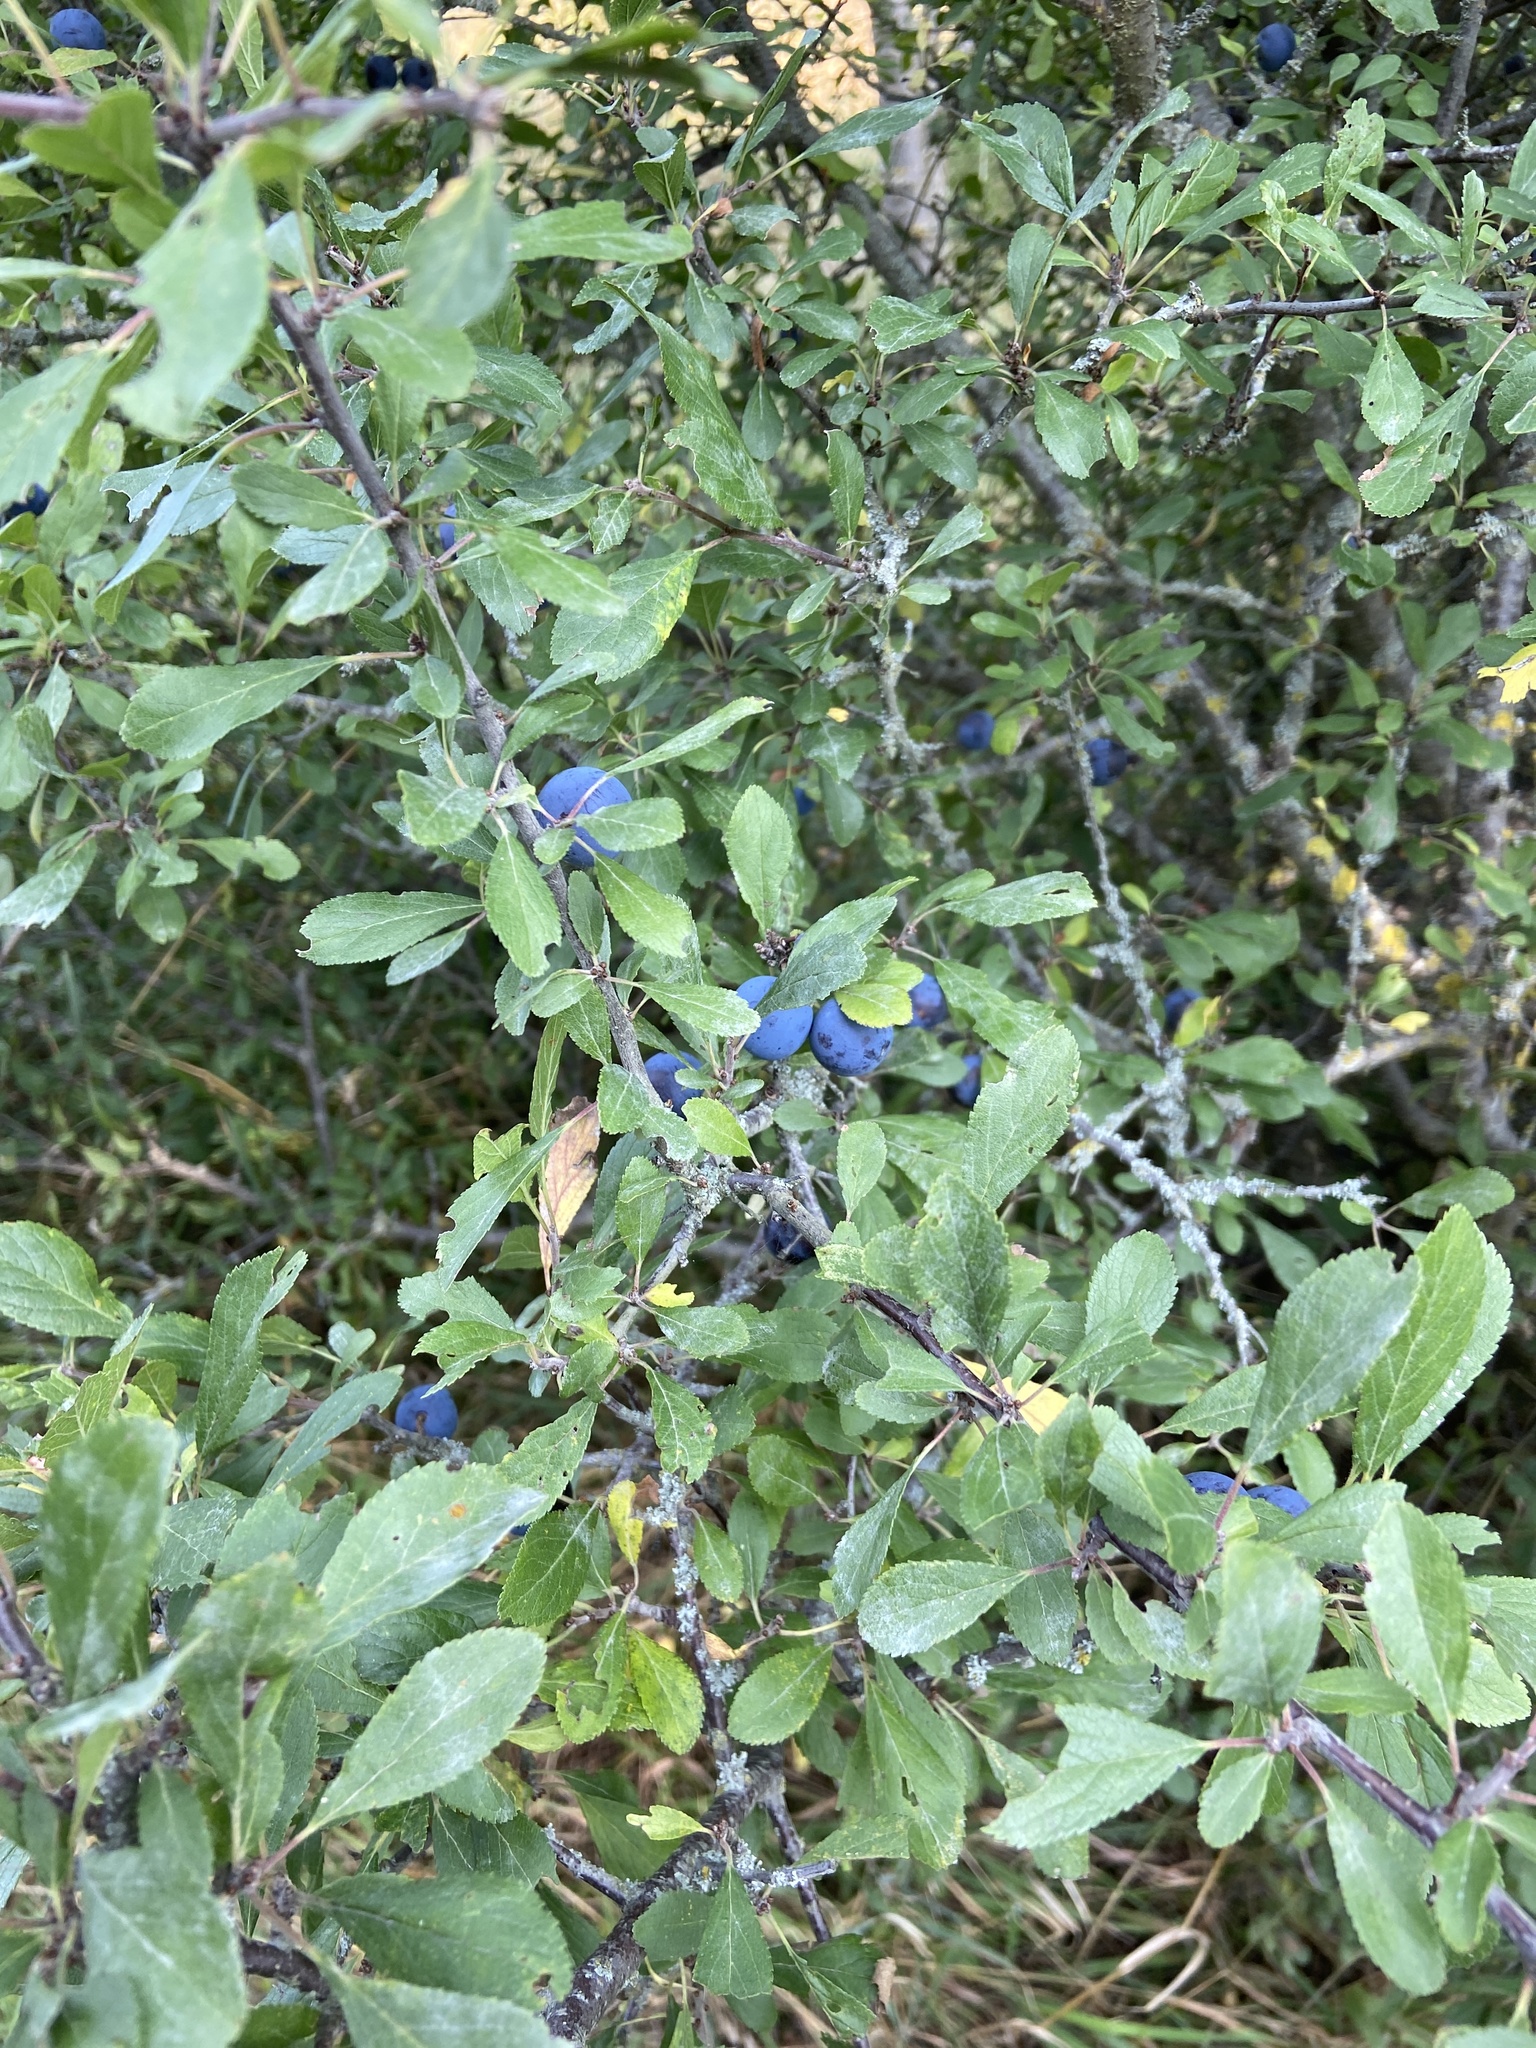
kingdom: Plantae
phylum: Tracheophyta
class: Magnoliopsida
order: Rosales
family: Rosaceae
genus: Prunus
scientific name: Prunus spinosa
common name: Blackthorn
